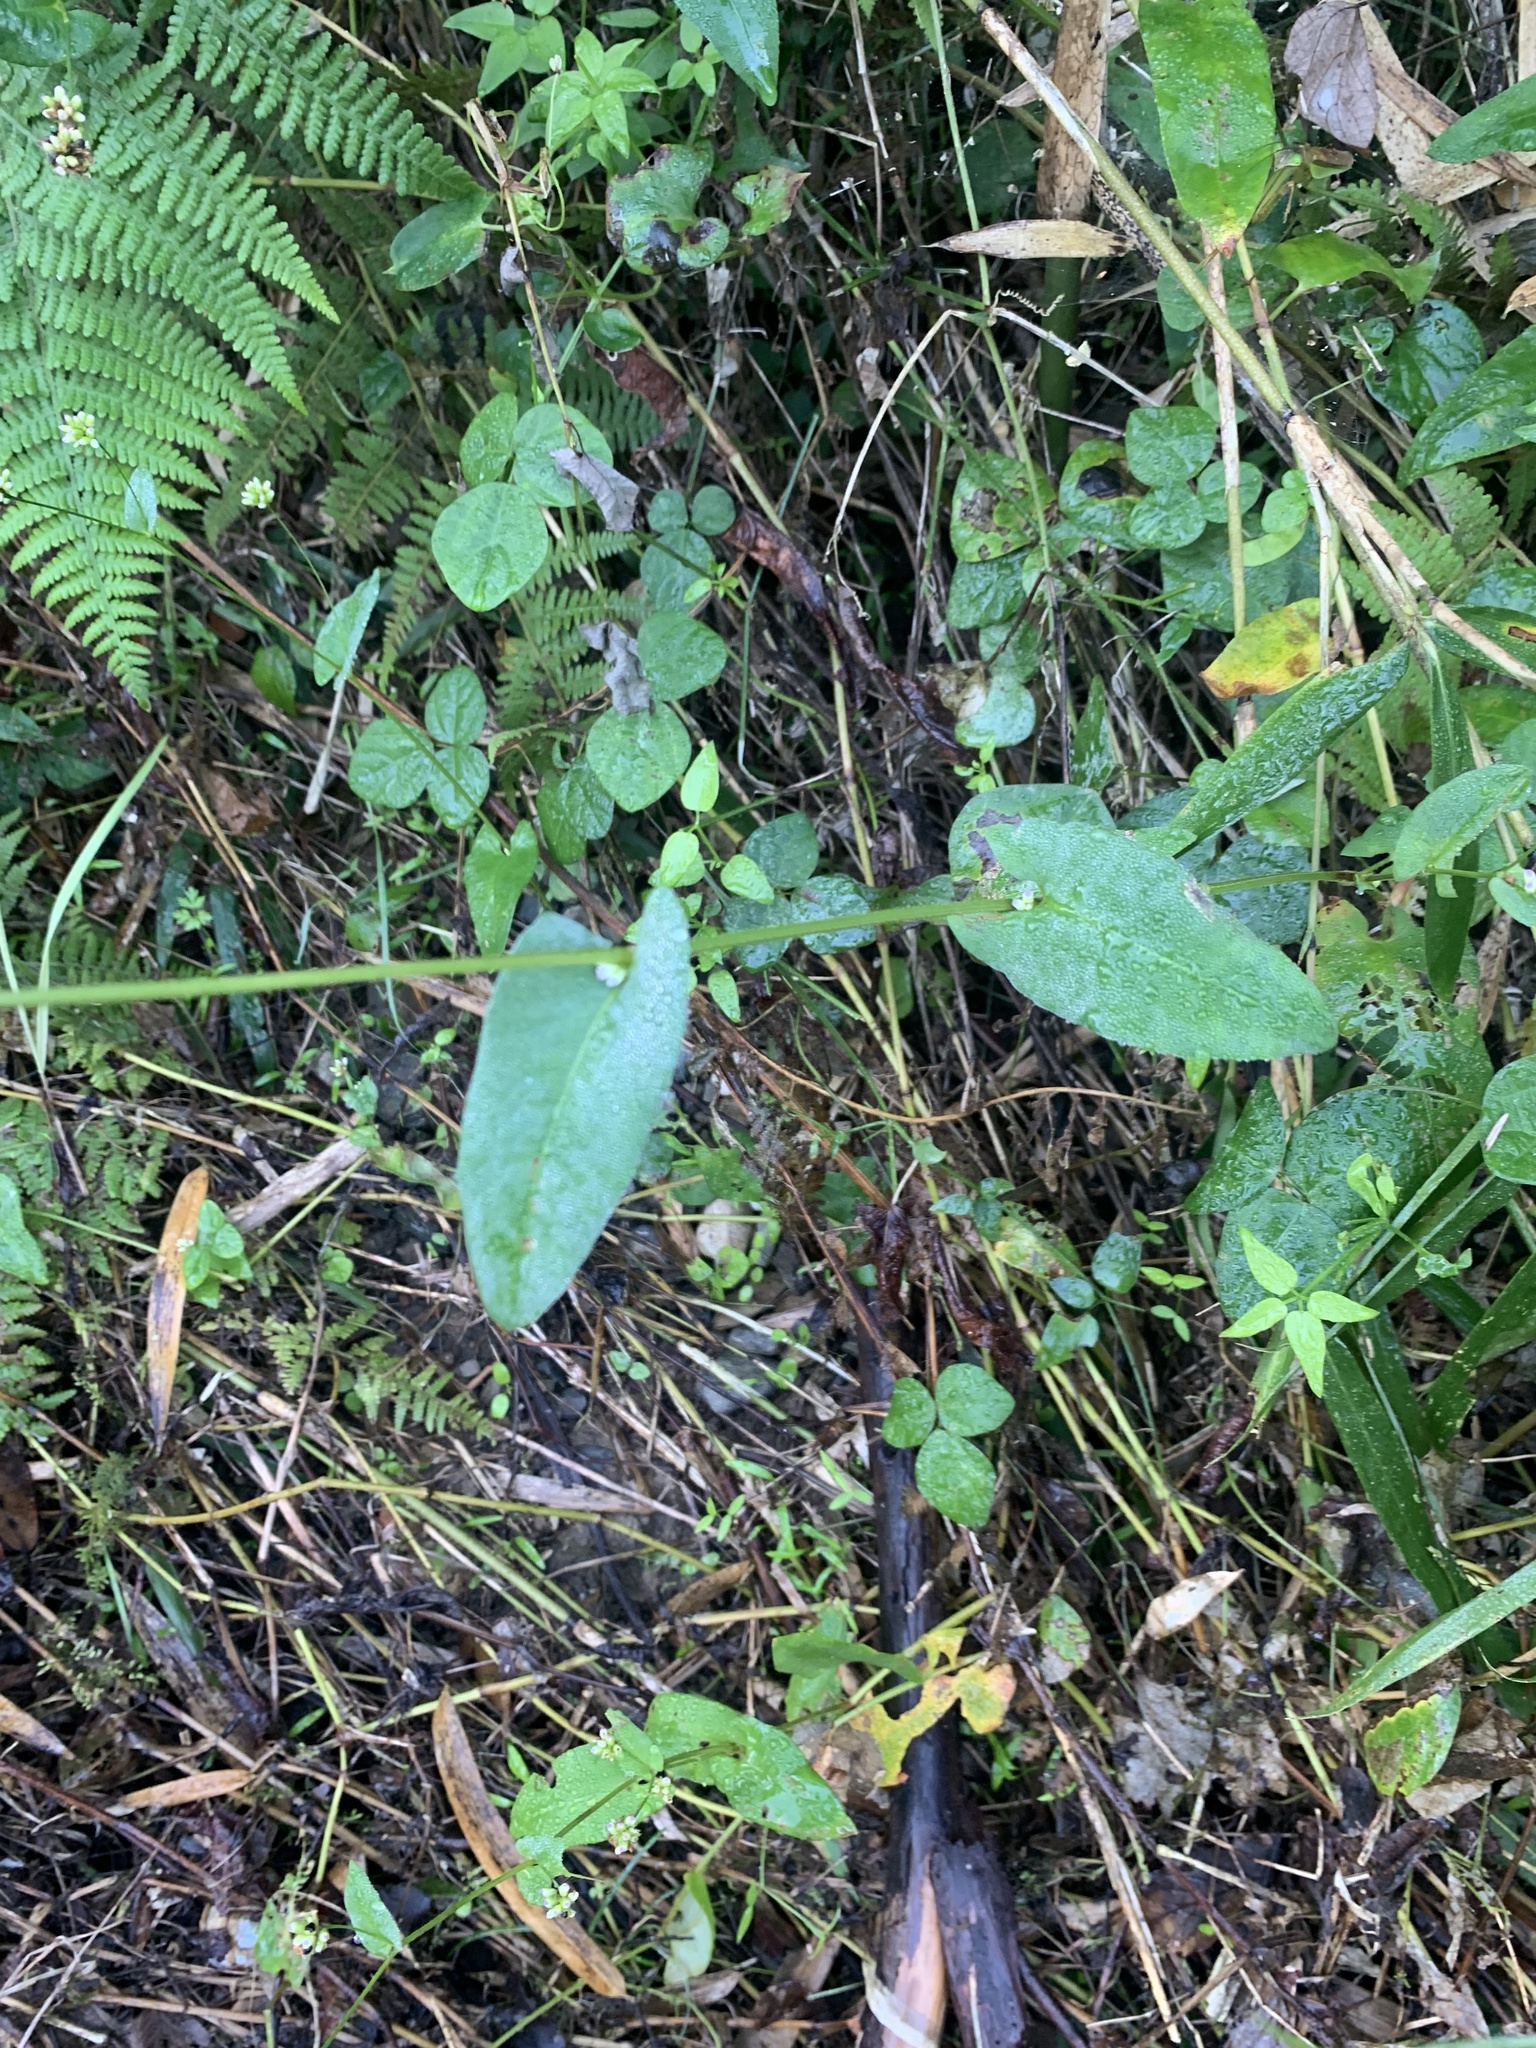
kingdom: Plantae
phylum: Tracheophyta
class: Magnoliopsida
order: Caryophyllales
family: Polygonaceae
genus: Persicaria
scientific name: Persicaria sagittata
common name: American tearthumb
